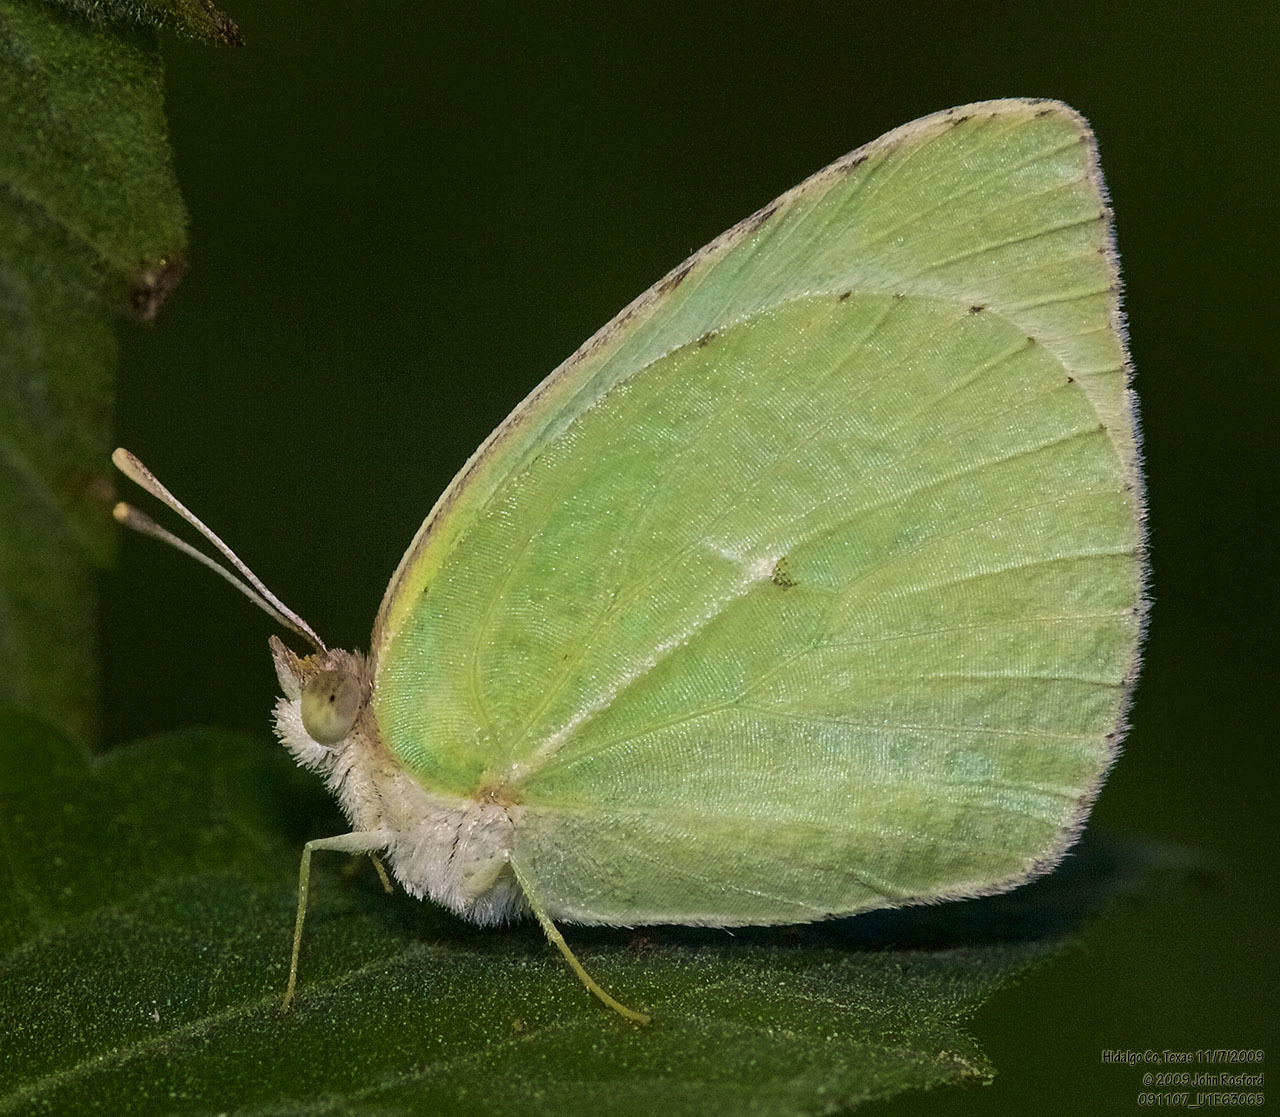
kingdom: Animalia
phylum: Arthropoda
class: Insecta
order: Lepidoptera
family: Pieridae
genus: Kricogonia
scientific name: Kricogonia lyside
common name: Guayacan sulphur,
